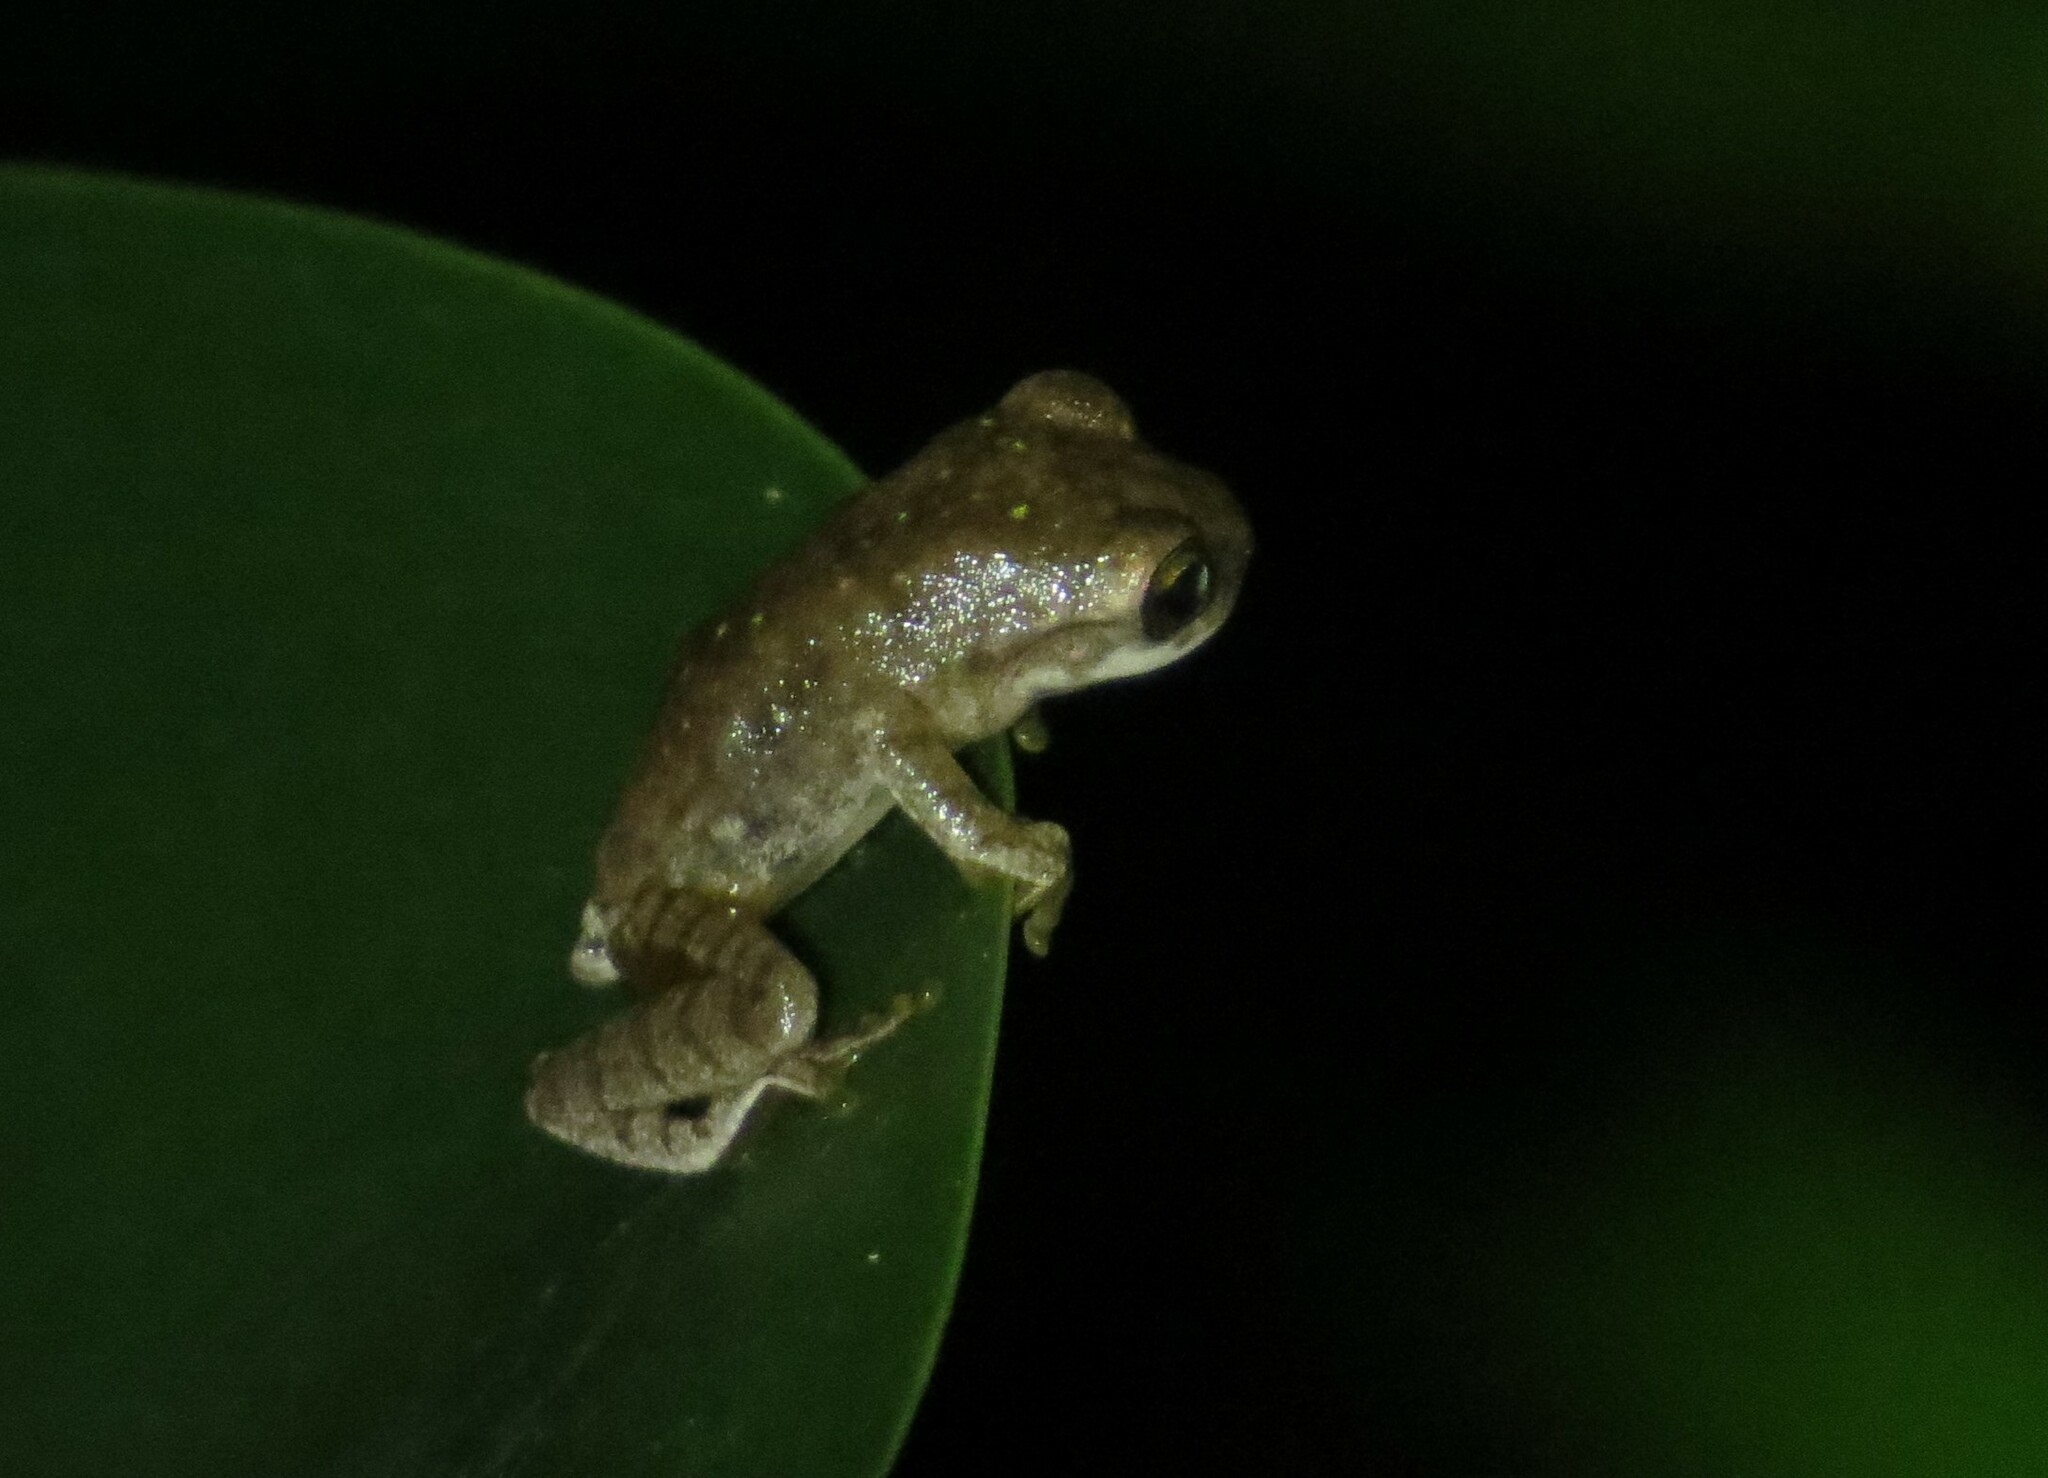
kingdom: Animalia
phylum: Chordata
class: Amphibia
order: Anura
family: Hylidae
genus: Smilisca
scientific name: Smilisca
